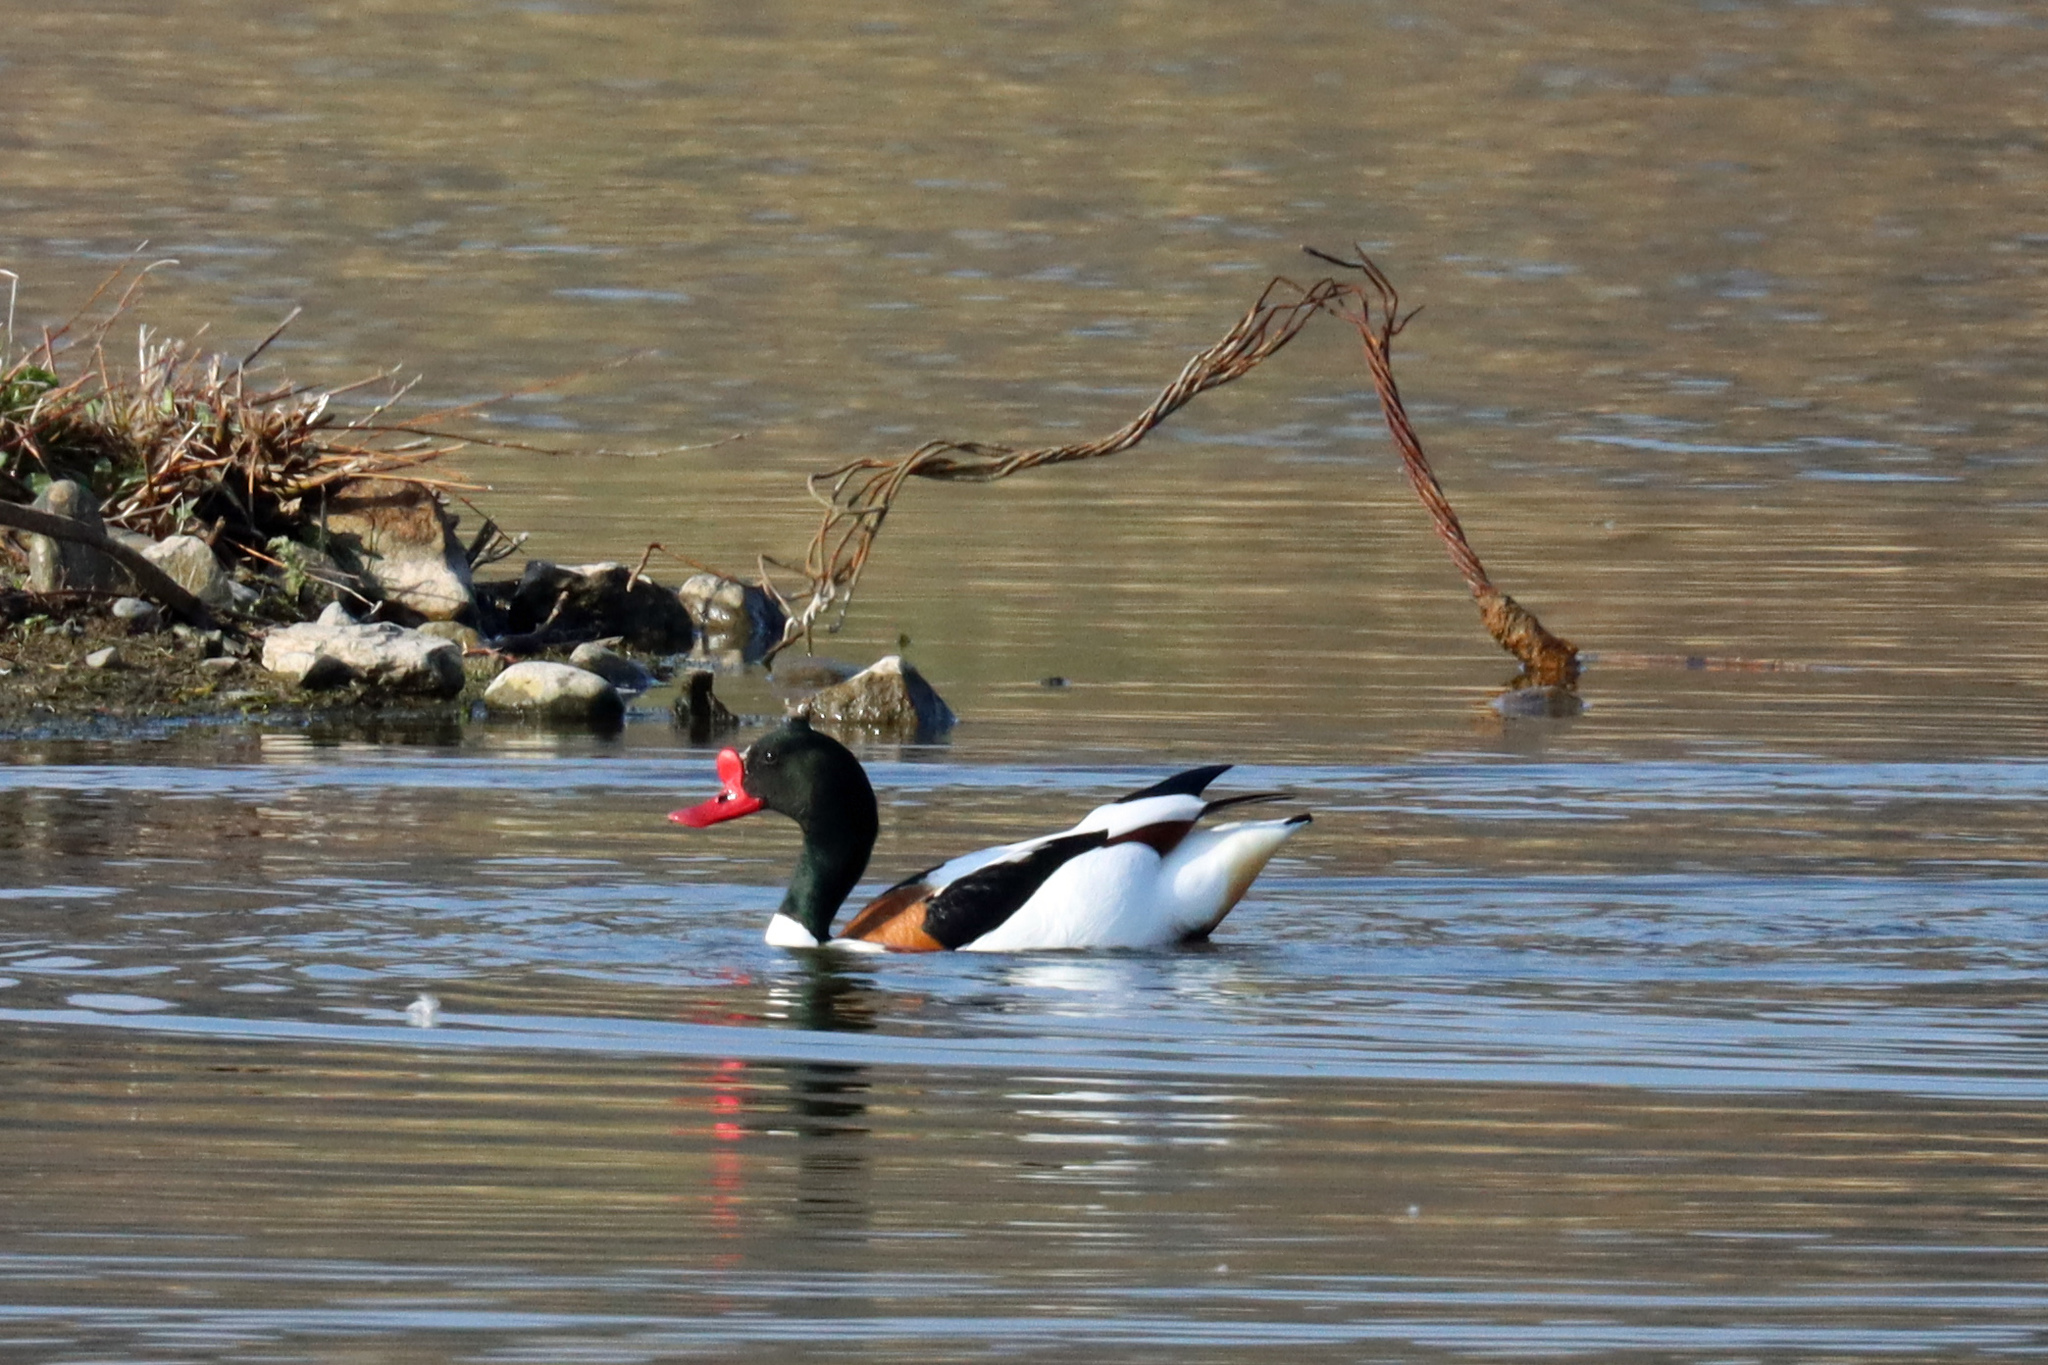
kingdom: Animalia
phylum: Chordata
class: Aves
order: Anseriformes
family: Anatidae
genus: Tadorna
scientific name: Tadorna tadorna
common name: Common shelduck
